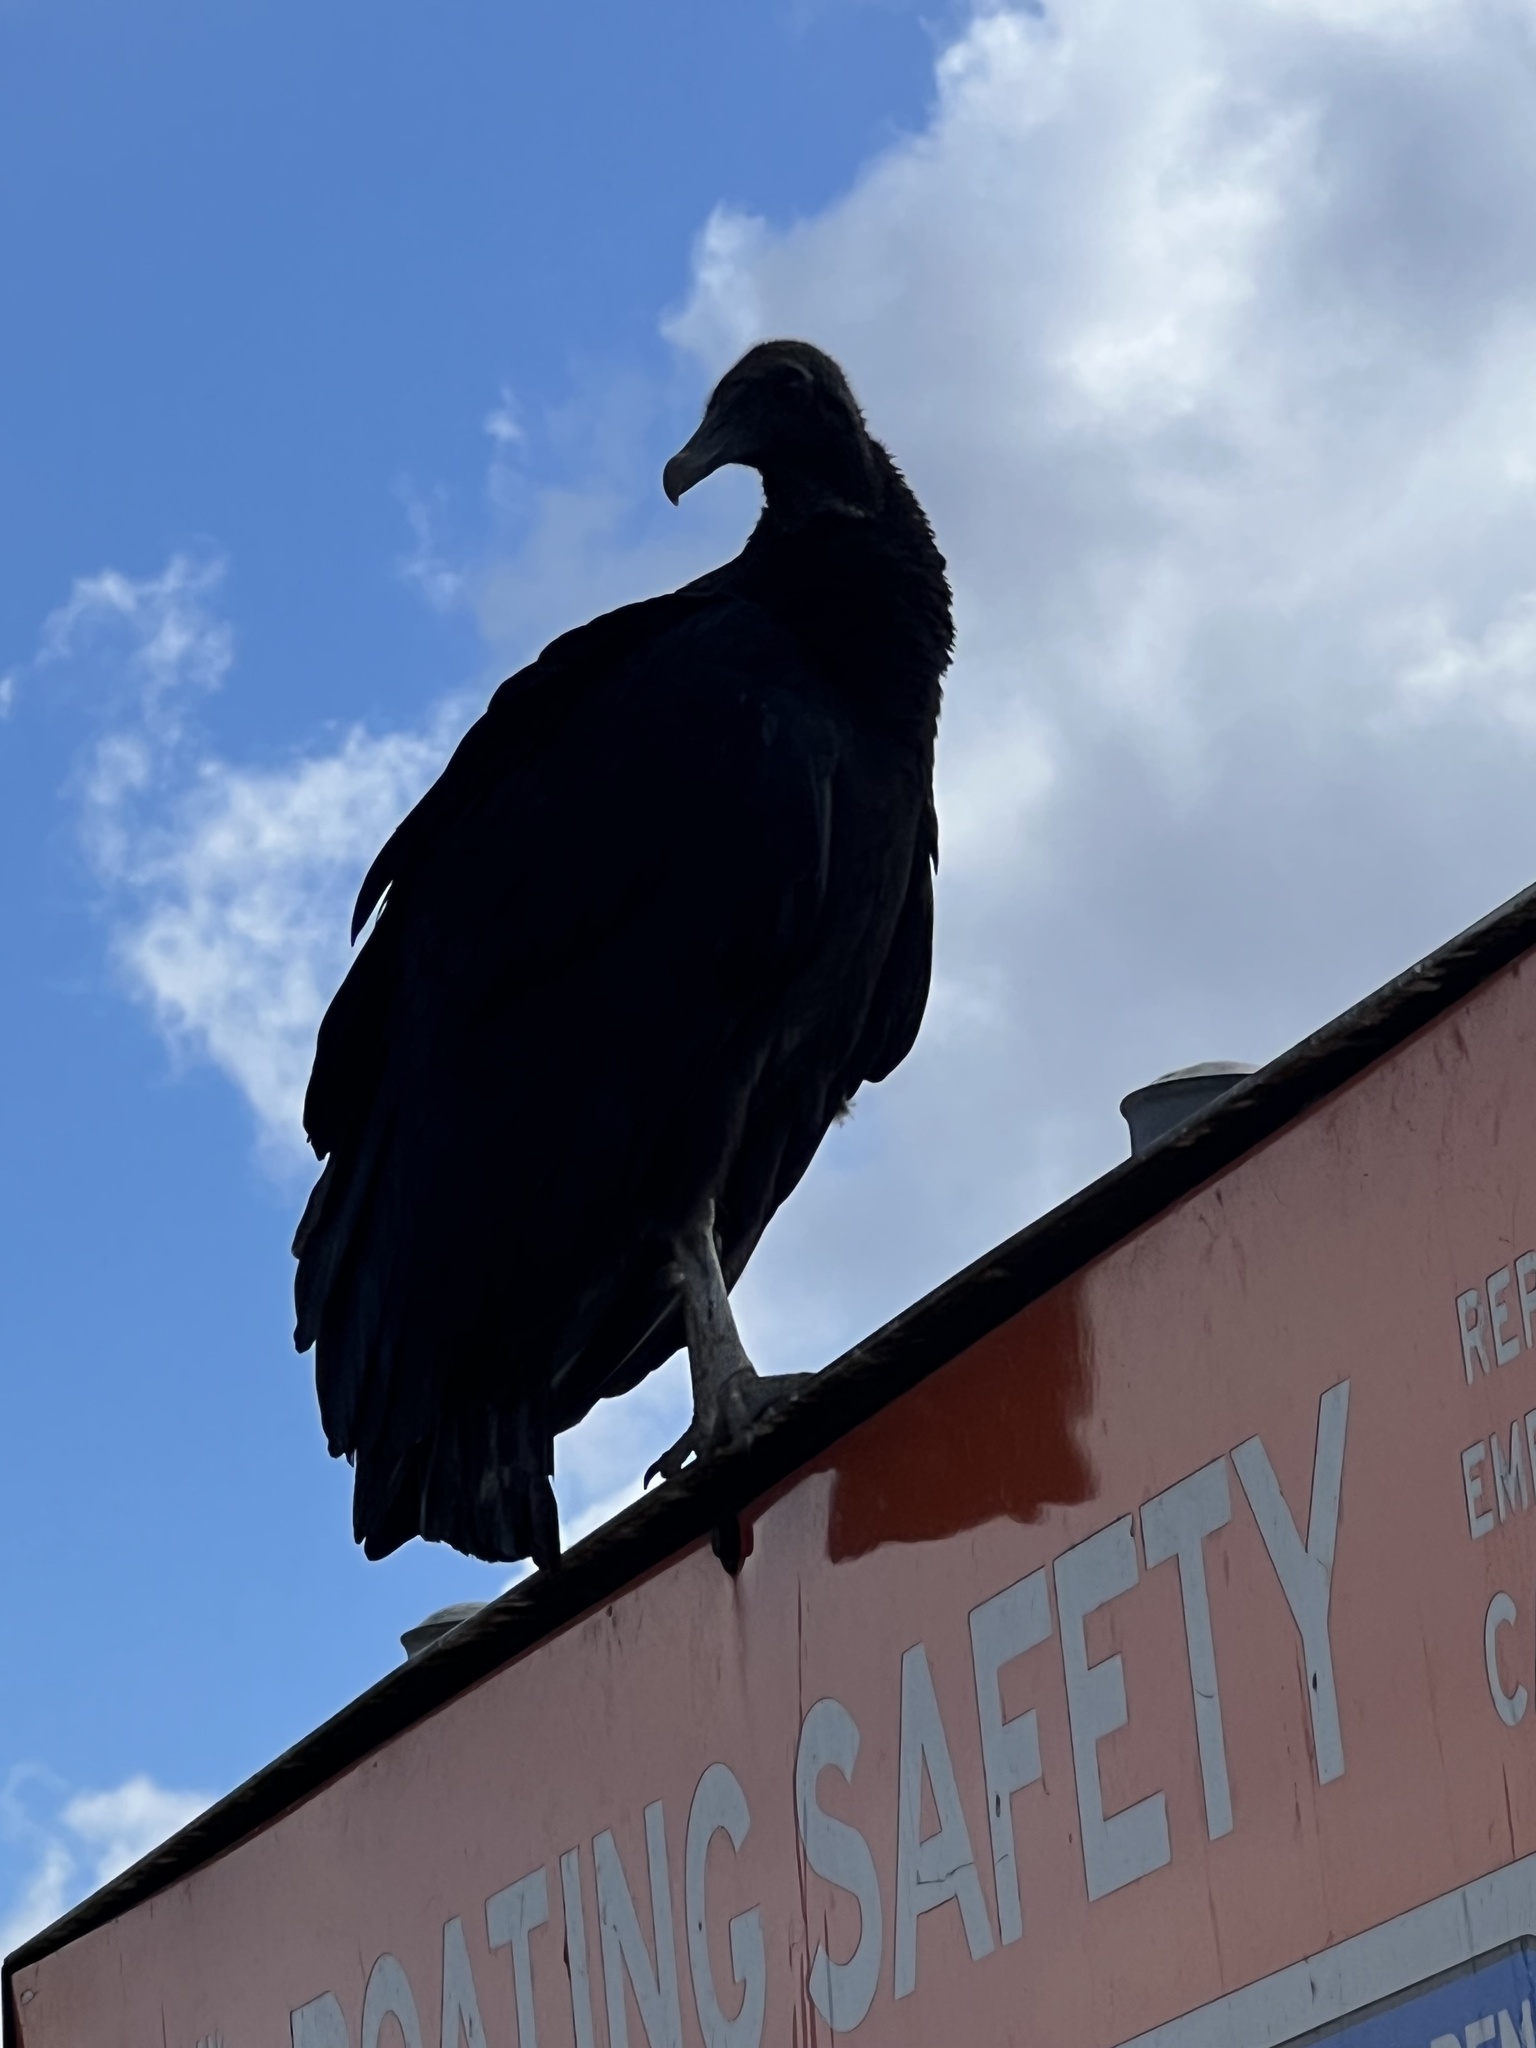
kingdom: Animalia
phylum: Chordata
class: Aves
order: Accipitriformes
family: Cathartidae
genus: Coragyps
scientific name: Coragyps atratus
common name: Black vulture
